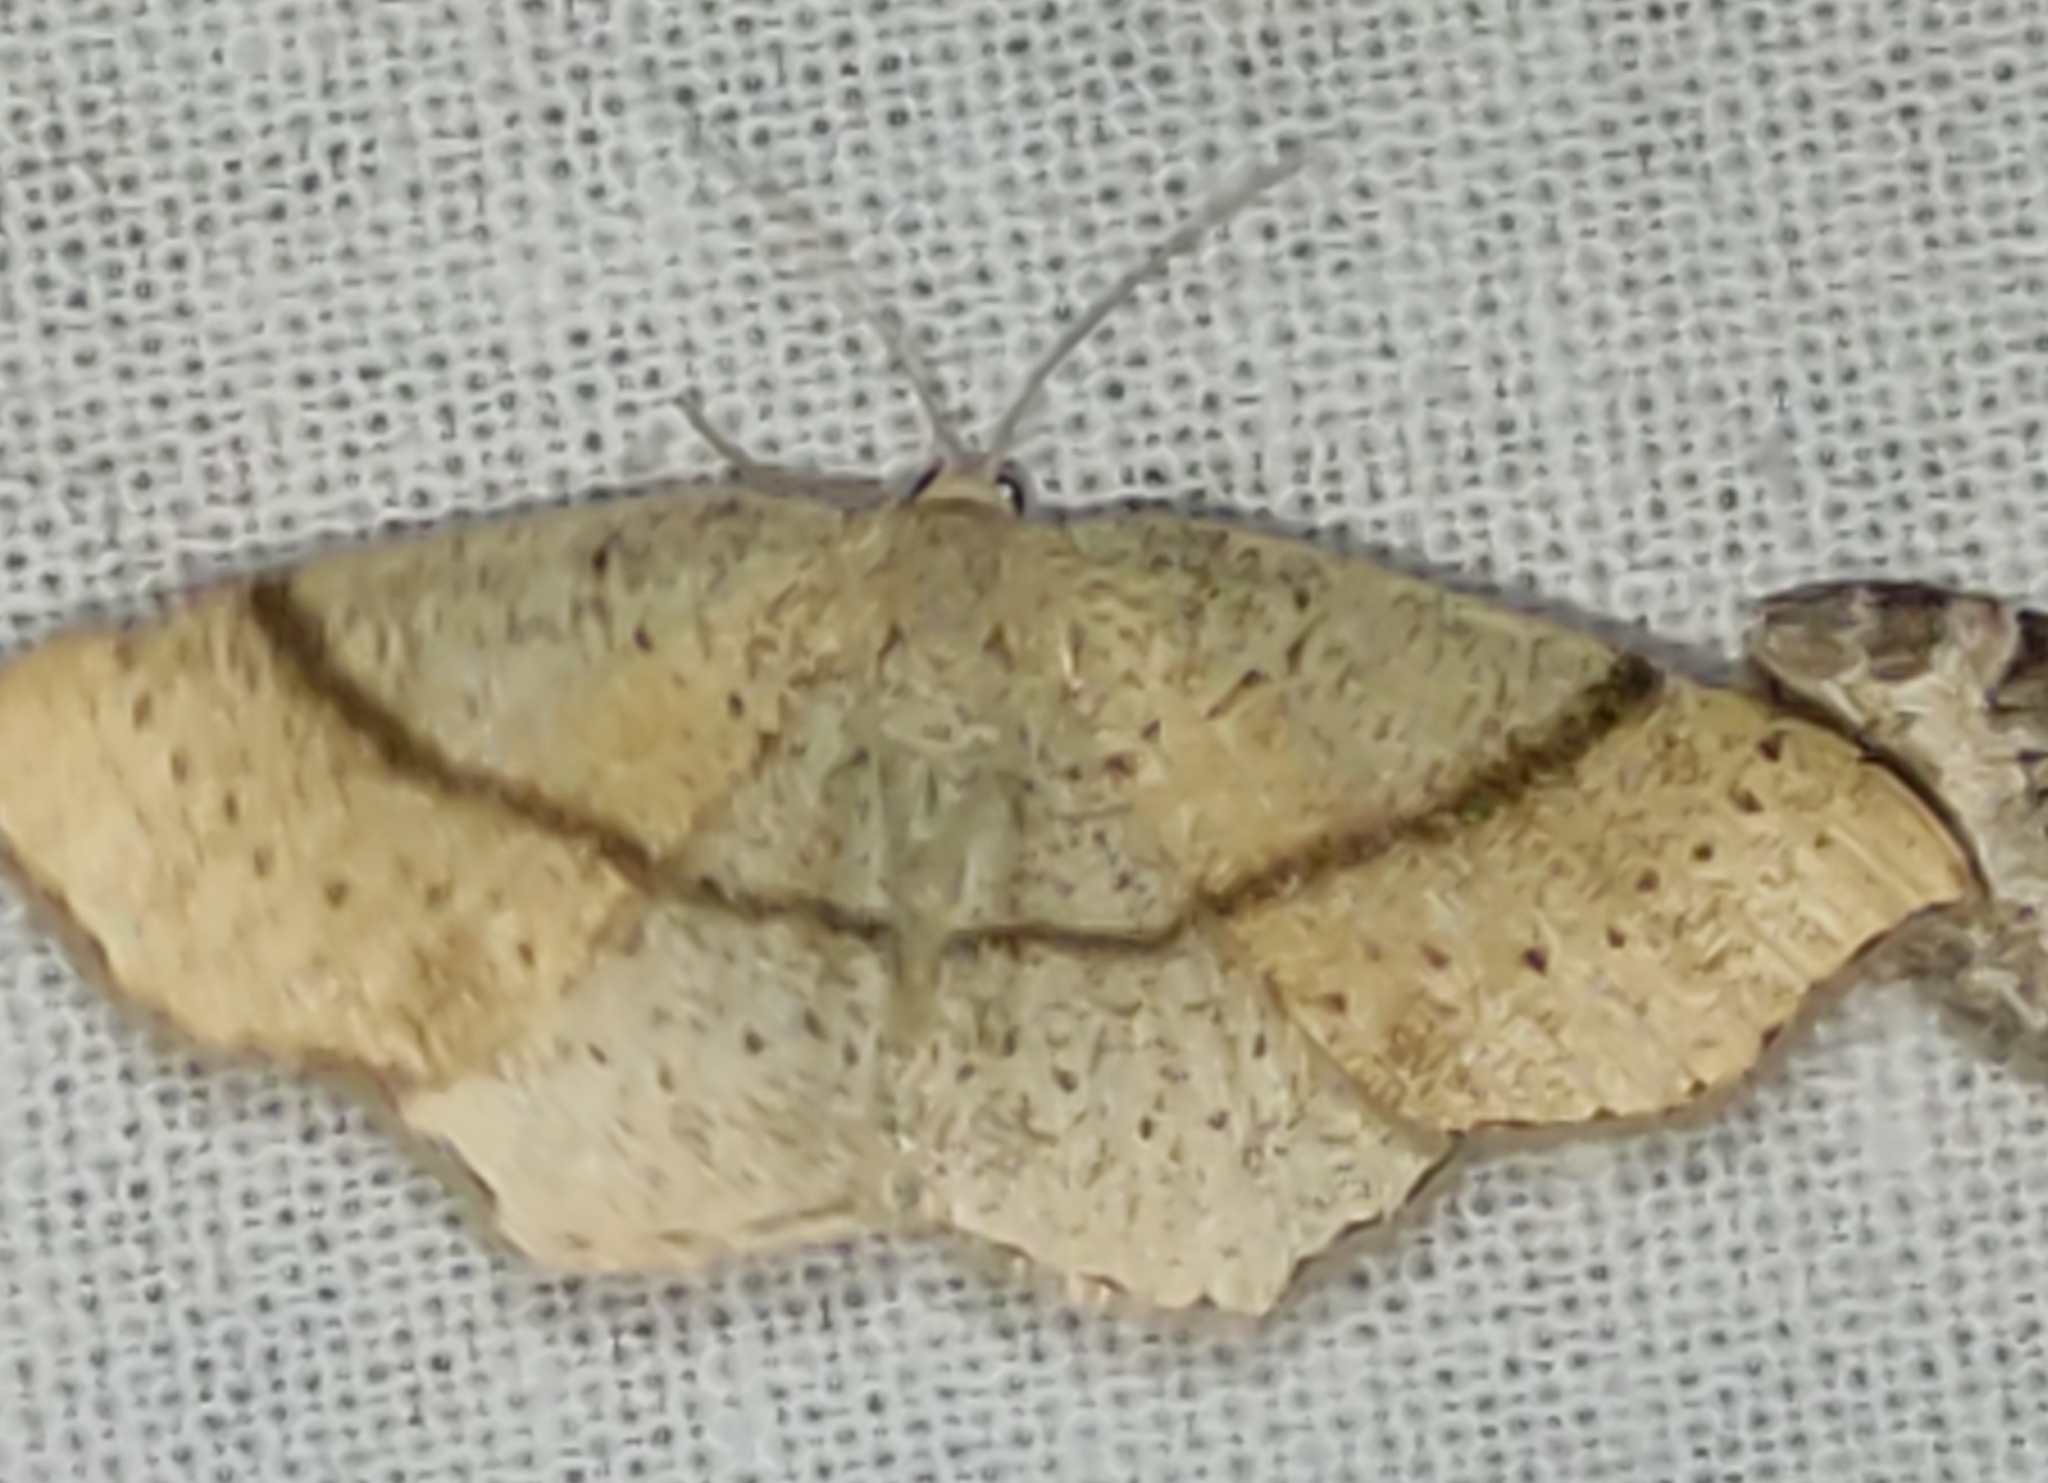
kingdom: Animalia
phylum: Arthropoda
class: Insecta
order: Lepidoptera
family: Geometridae
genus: Cyclophora
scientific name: Cyclophora punctaria
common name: Maiden's blush
